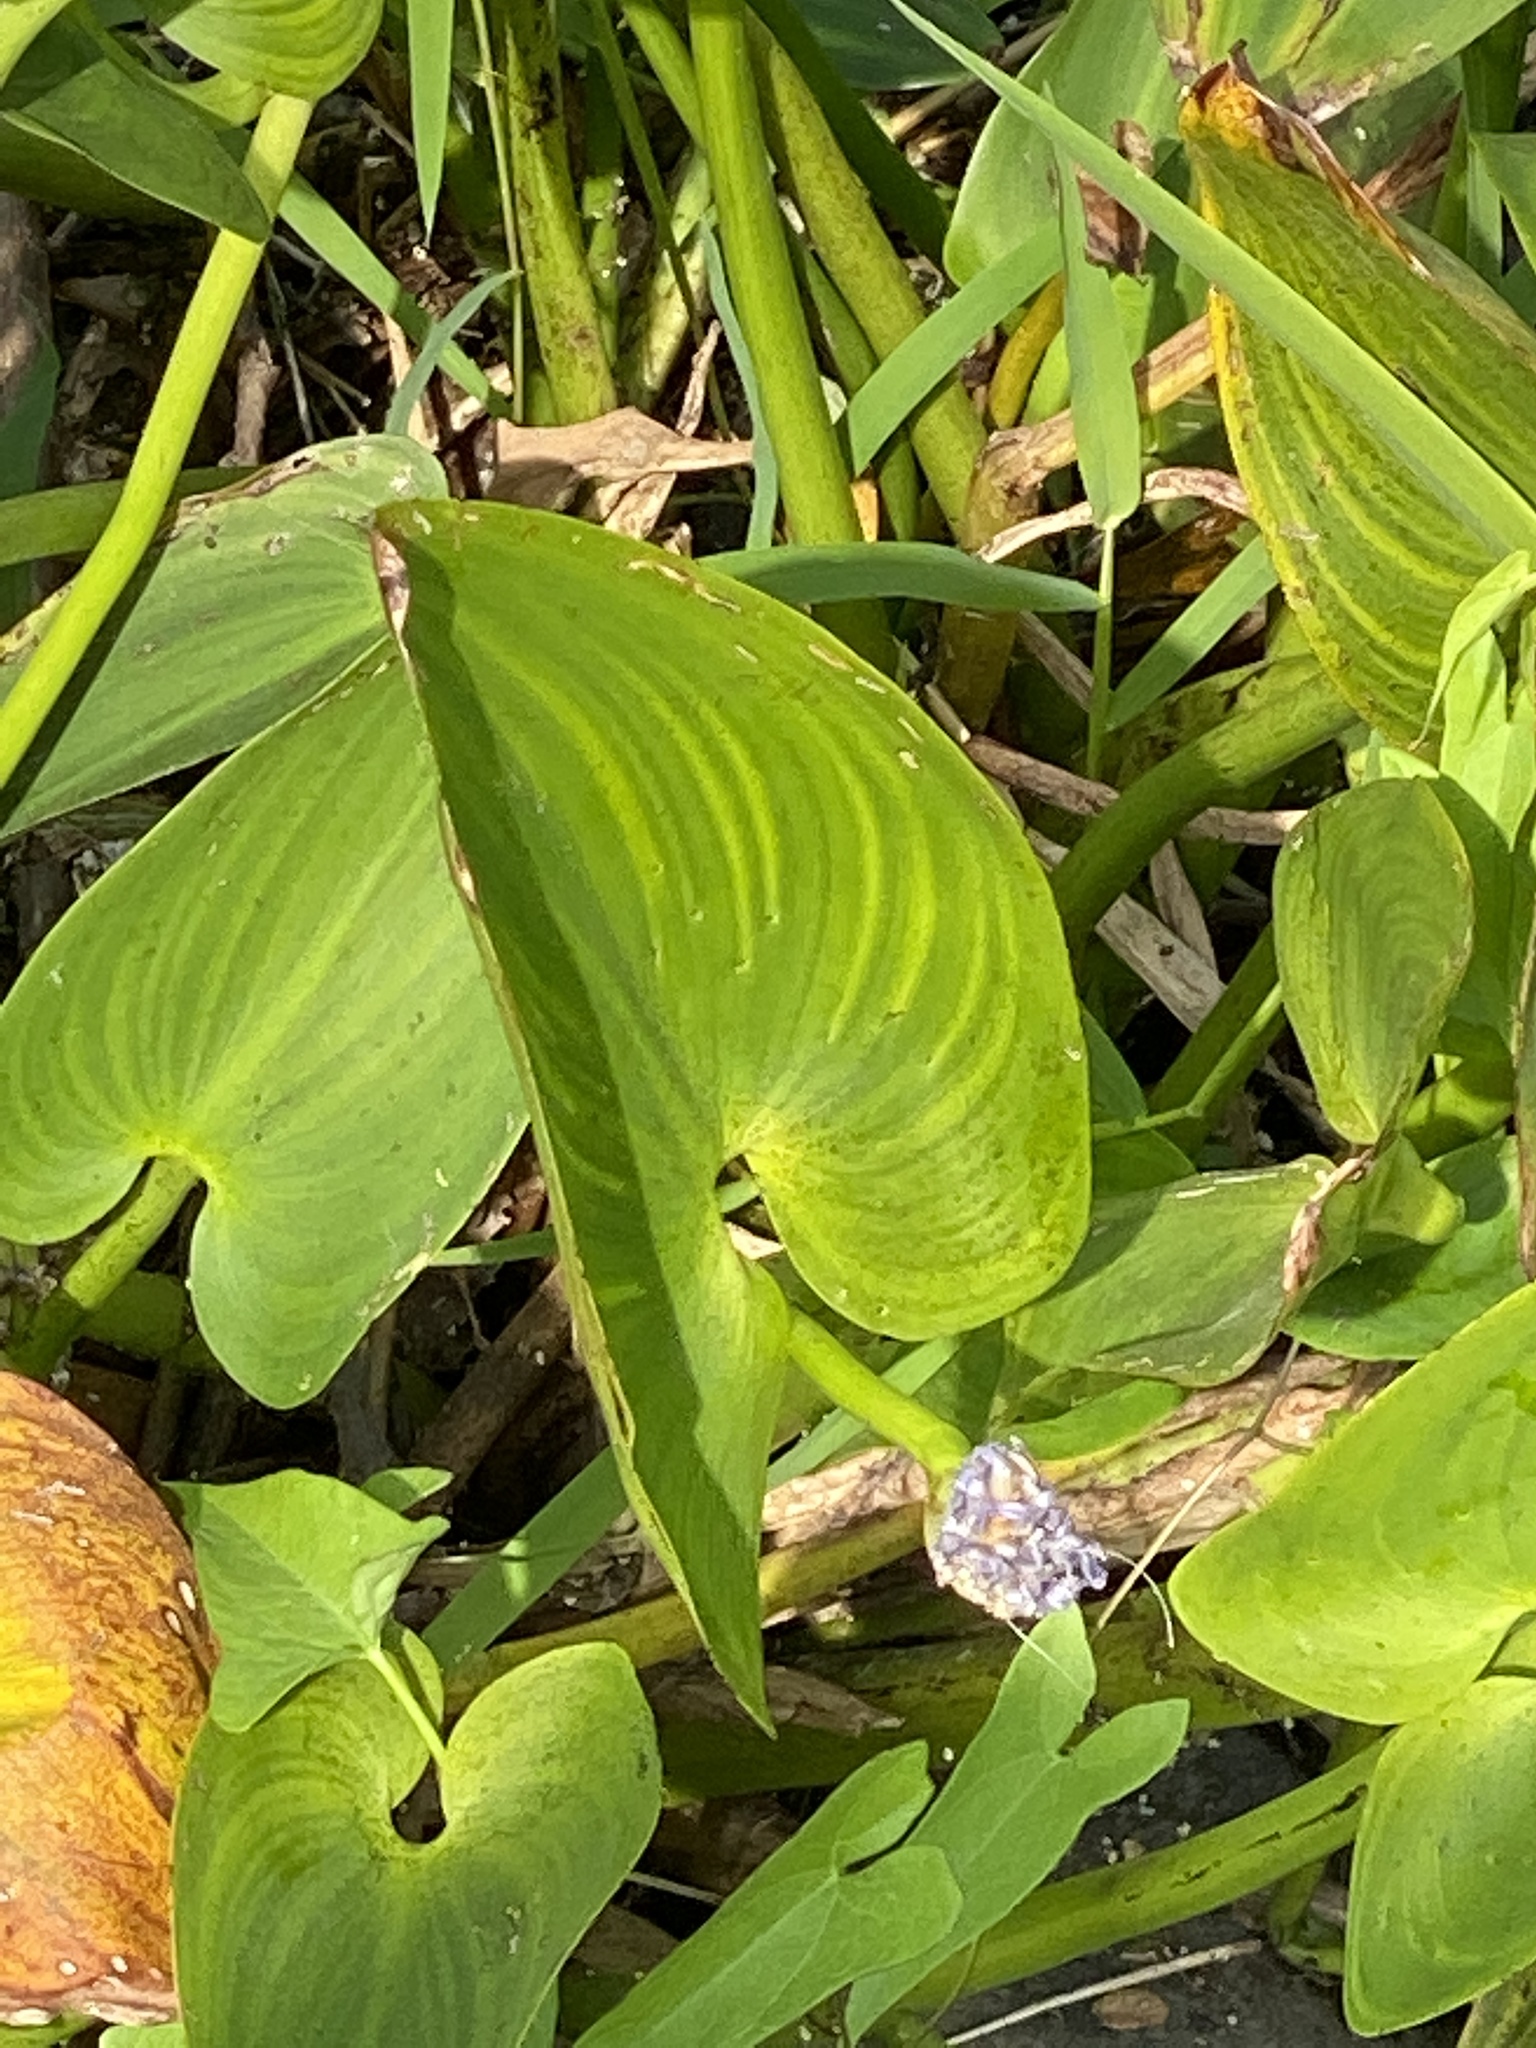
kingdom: Plantae
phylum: Tracheophyta
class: Liliopsida
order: Commelinales
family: Pontederiaceae
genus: Pontederia
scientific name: Pontederia cordata
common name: Pickerelweed
